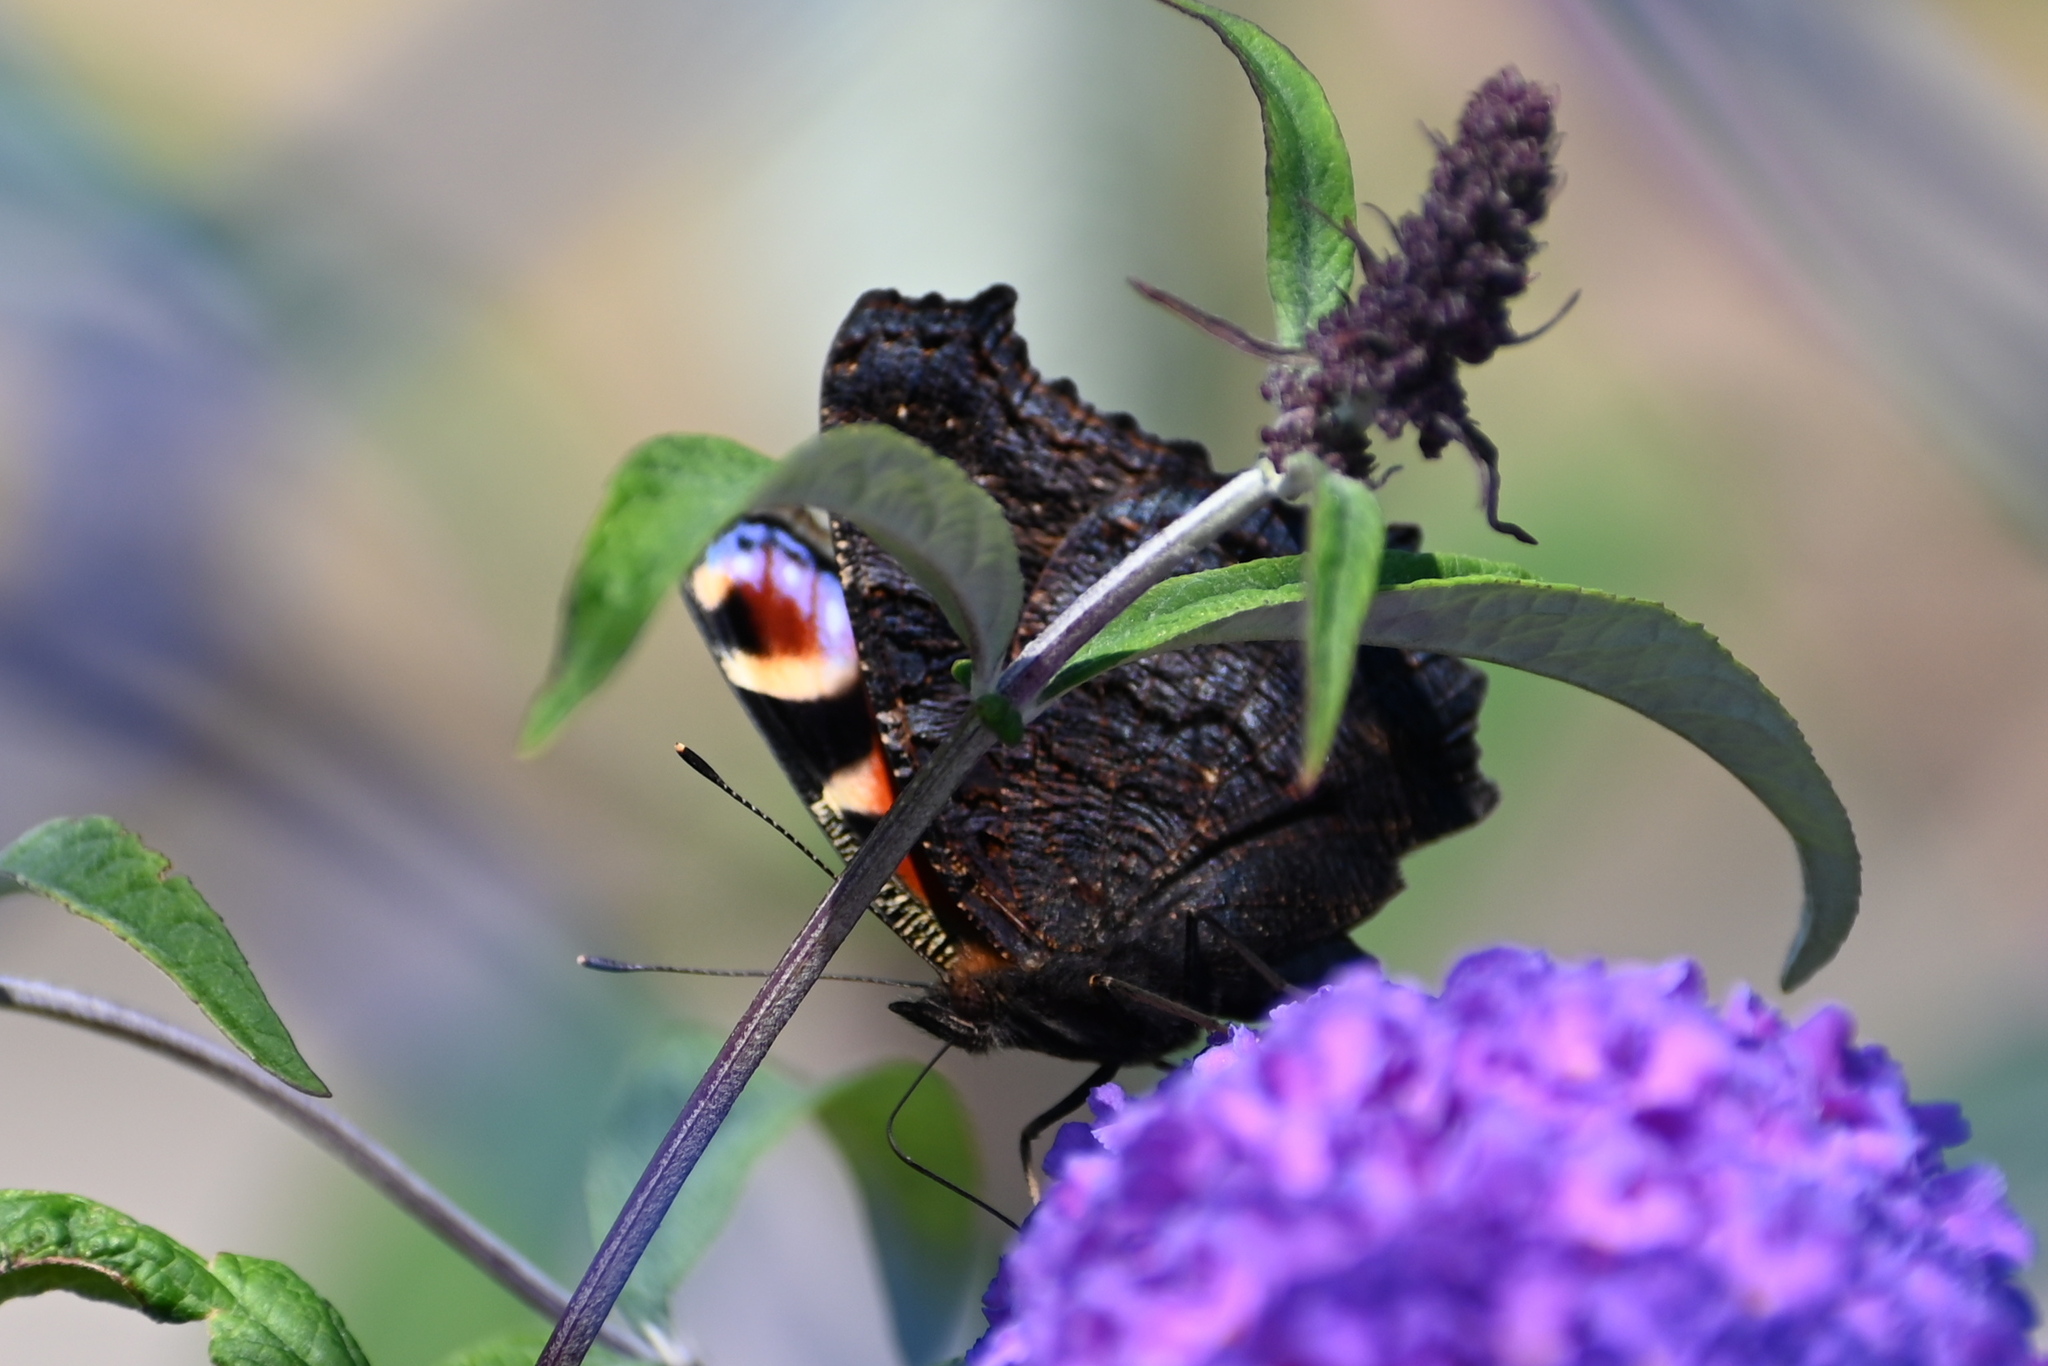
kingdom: Animalia
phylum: Arthropoda
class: Insecta
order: Lepidoptera
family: Nymphalidae
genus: Aglais
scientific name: Aglais io
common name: Peacock
